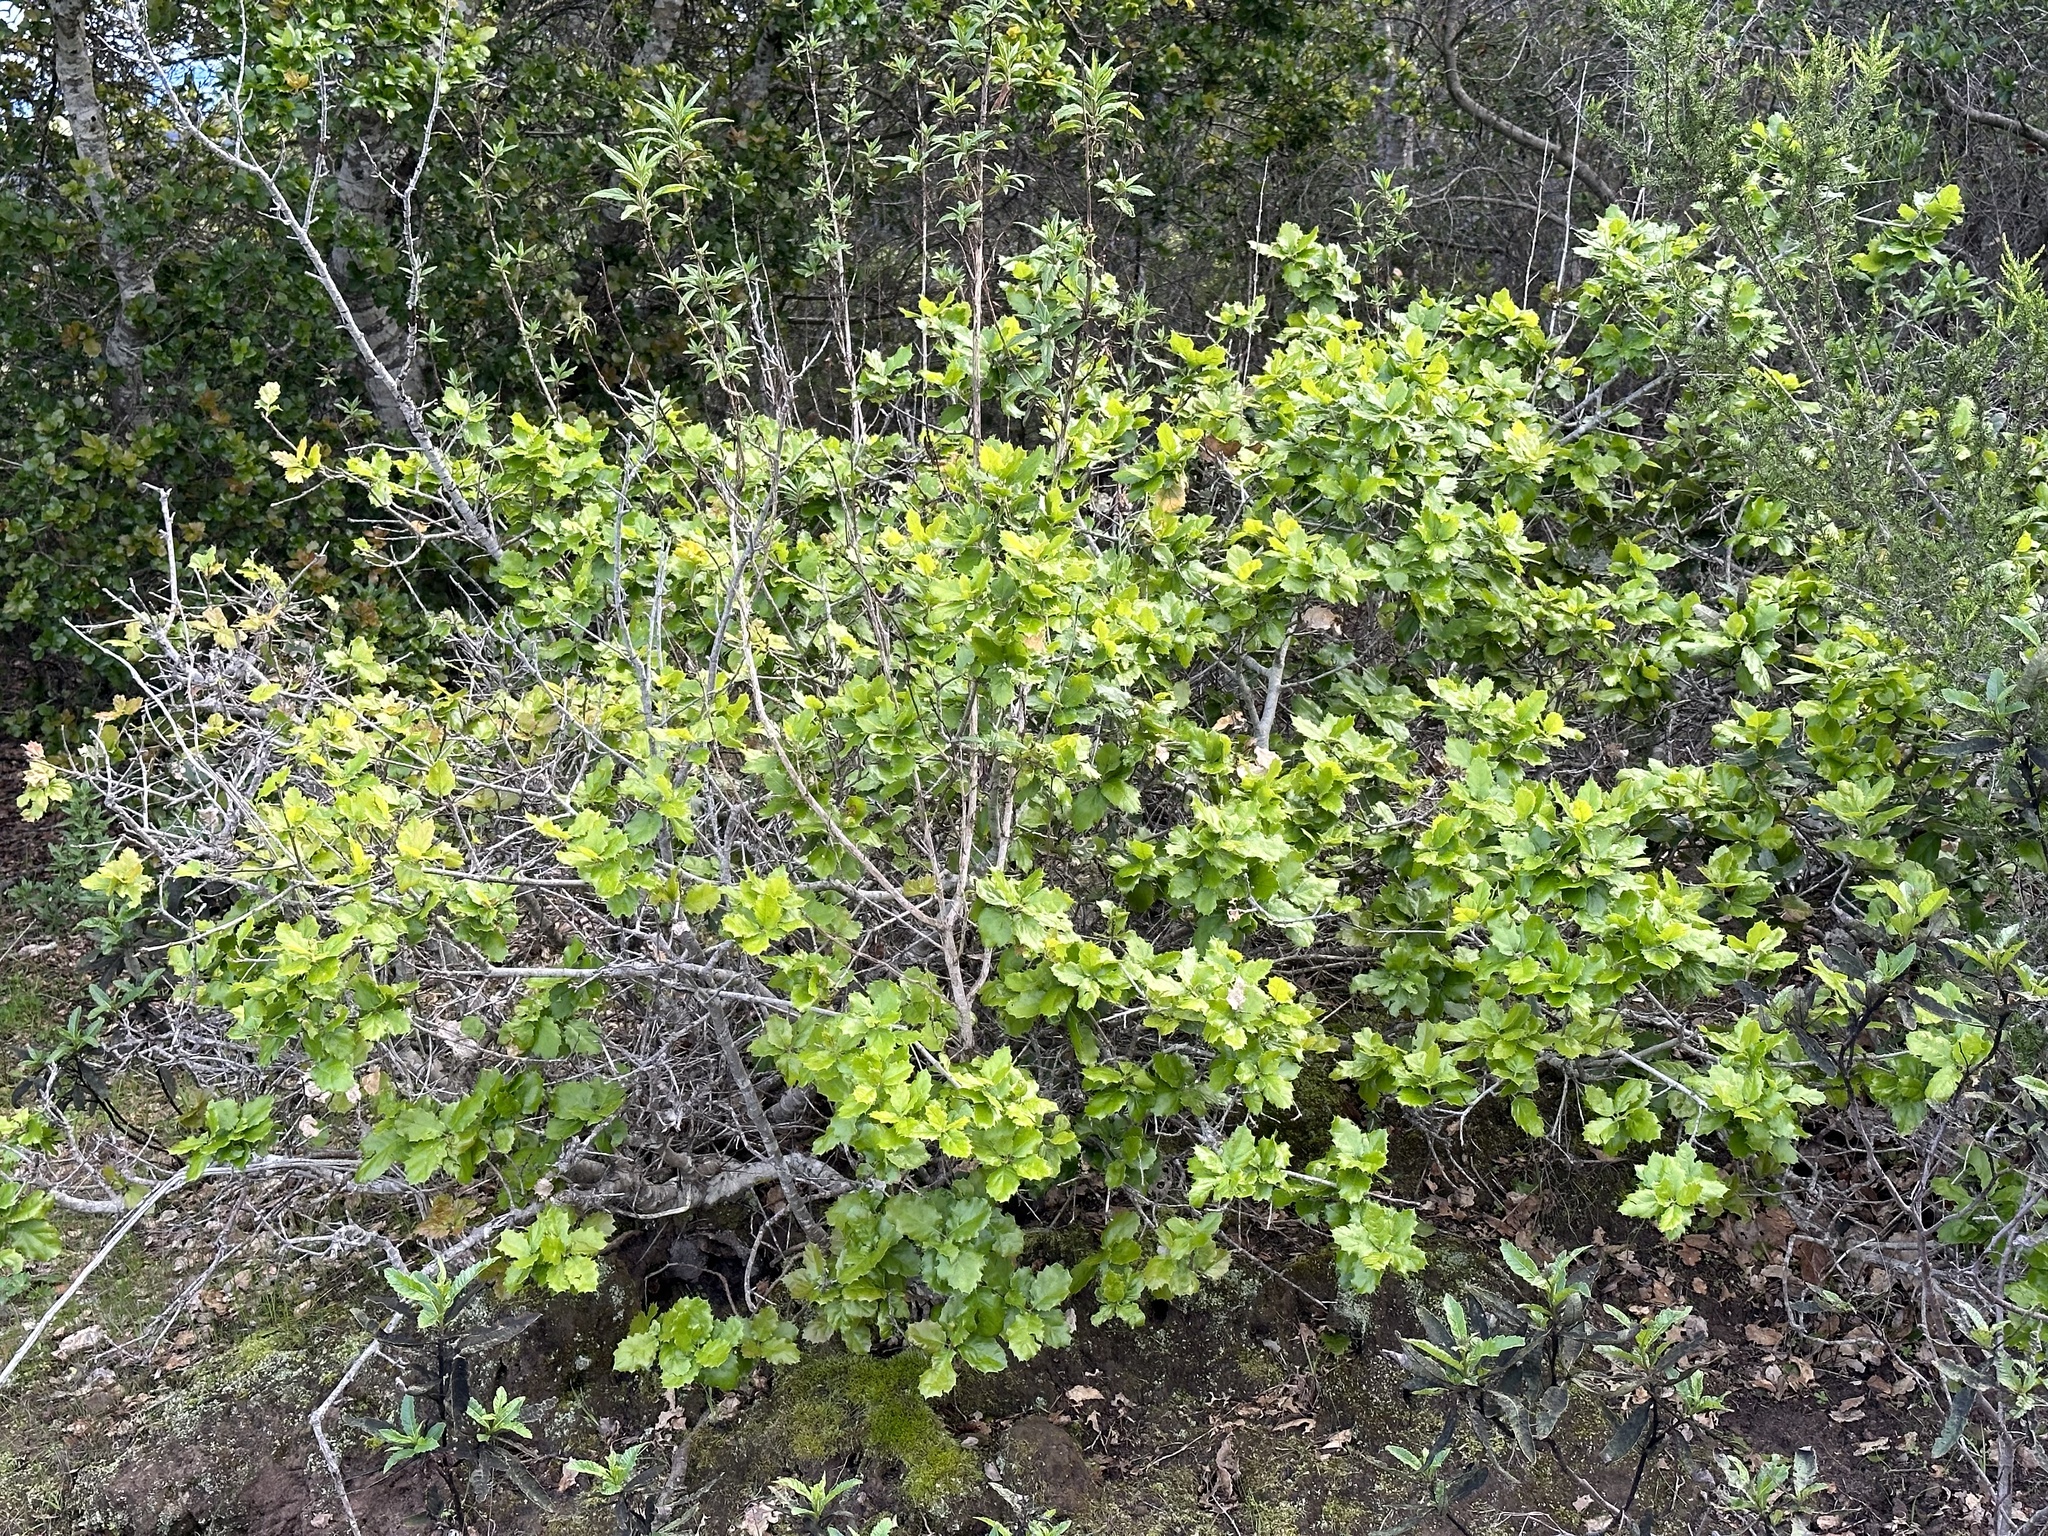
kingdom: Plantae
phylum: Tracheophyta
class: Magnoliopsida
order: Fagales
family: Fagaceae
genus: Quercus
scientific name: Quercus agrifolia
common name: California live oak
